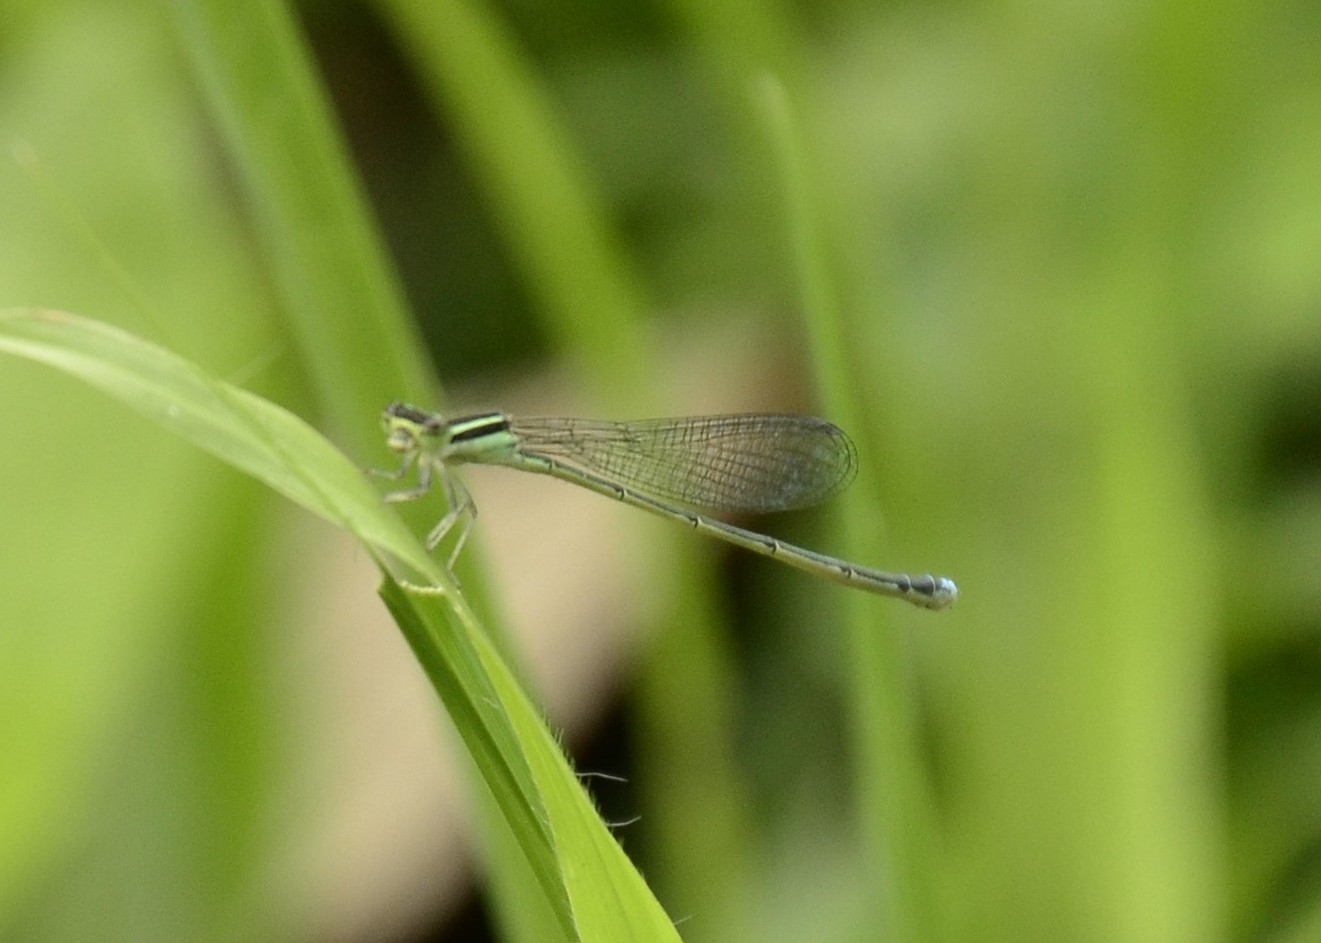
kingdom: Animalia
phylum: Arthropoda
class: Insecta
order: Odonata
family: Coenagrionidae
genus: Aciagrion
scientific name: Aciagrion occidentale
